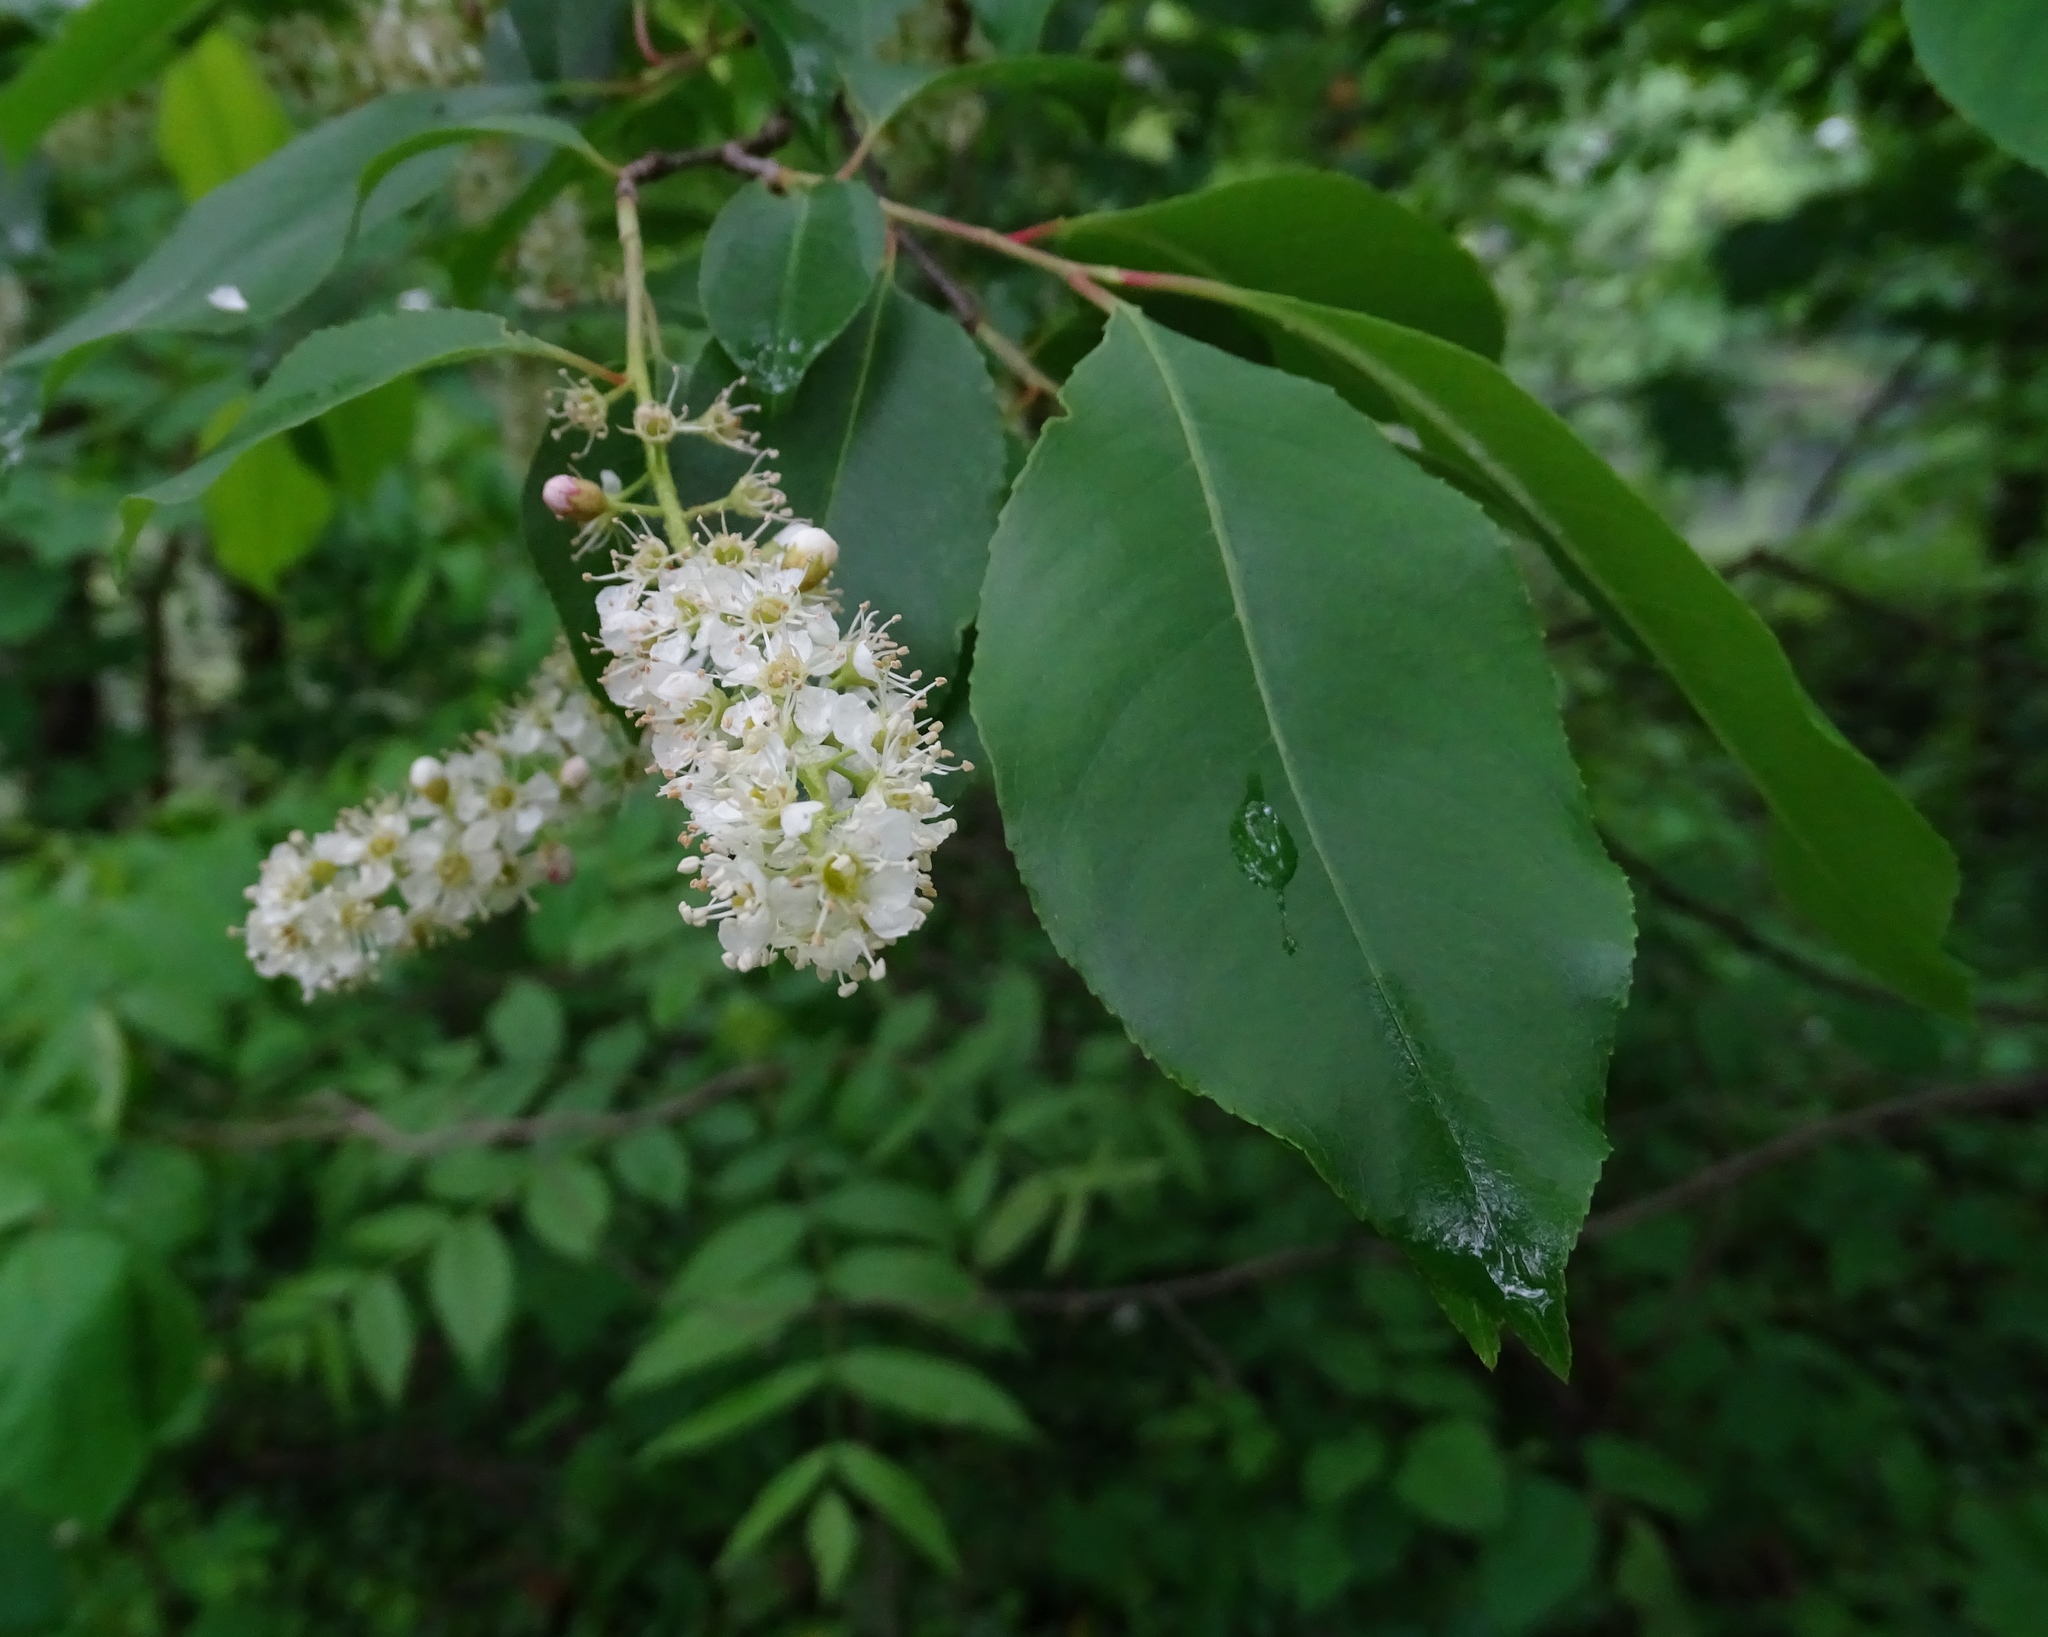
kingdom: Plantae
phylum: Tracheophyta
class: Magnoliopsida
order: Rosales
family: Rosaceae
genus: Prunus
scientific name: Prunus serotina
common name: Black cherry
